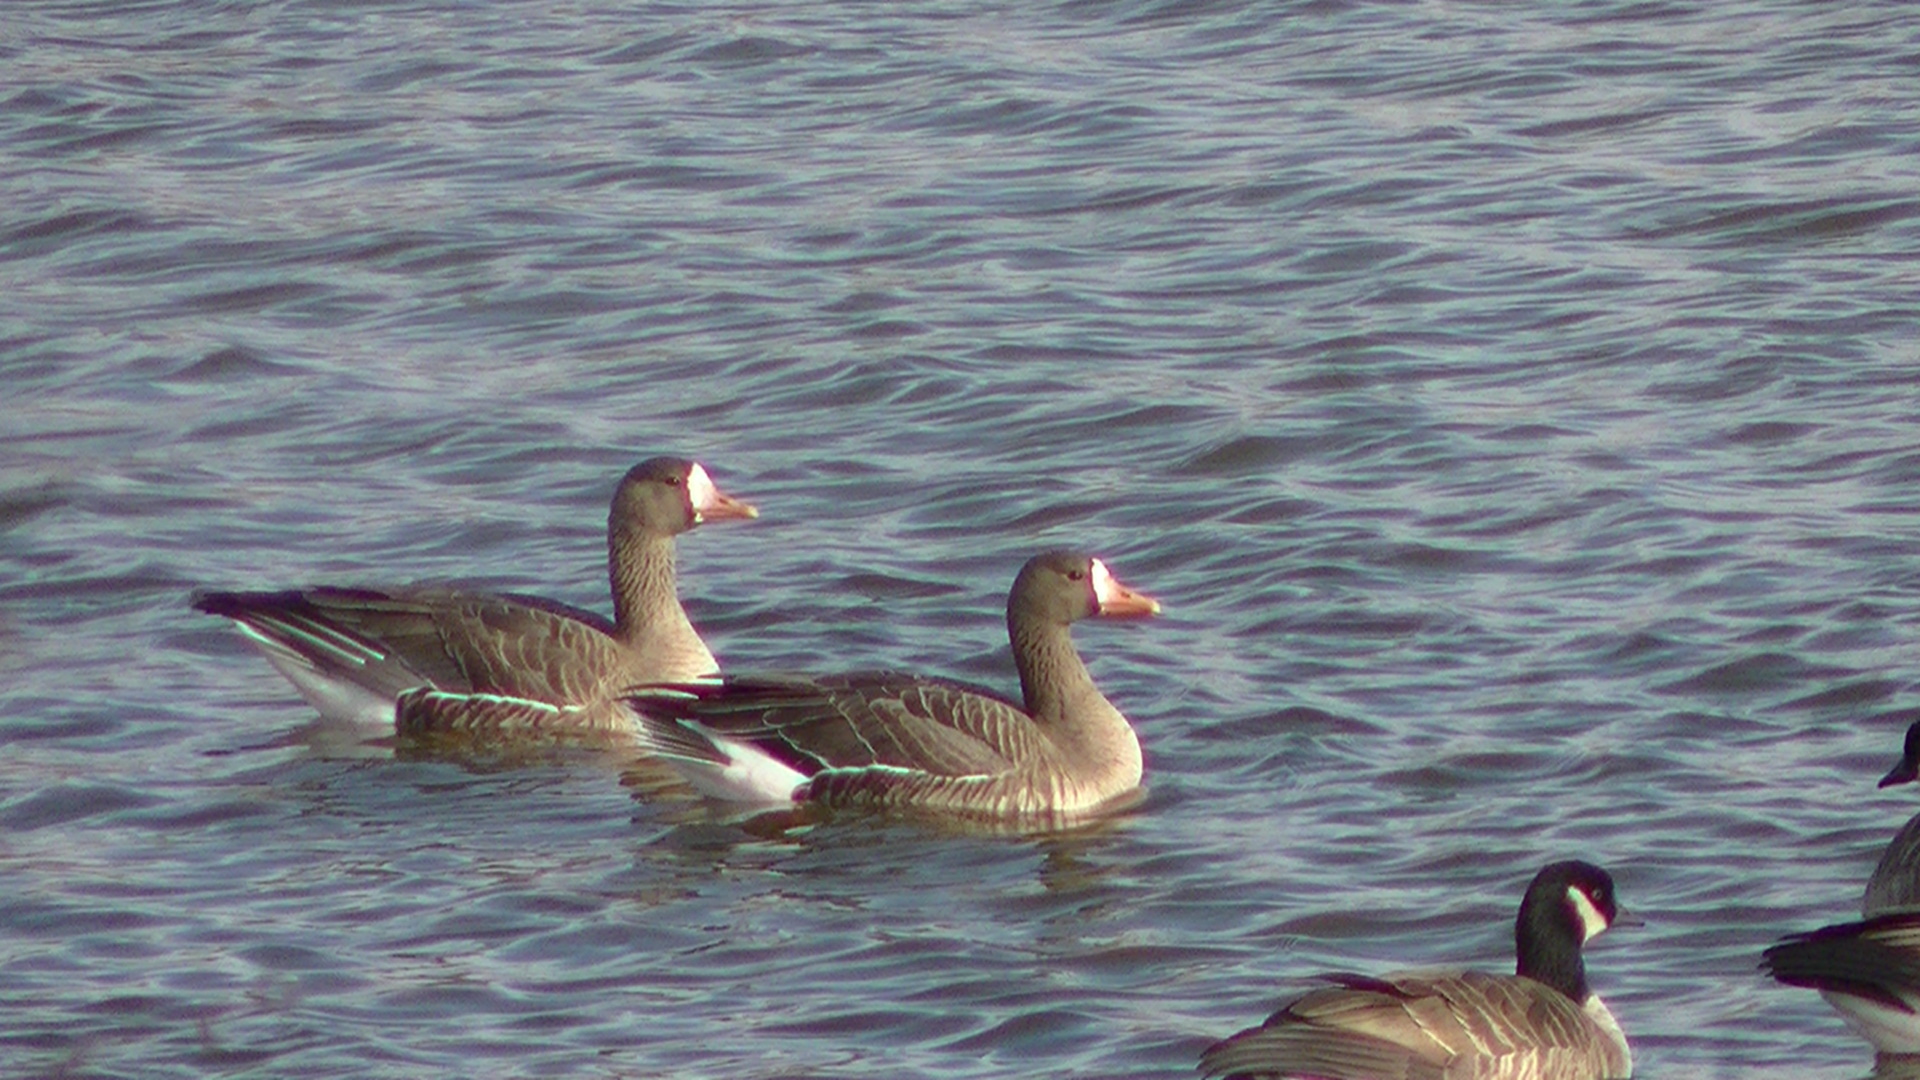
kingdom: Animalia
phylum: Chordata
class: Aves
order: Anseriformes
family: Anatidae
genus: Anser
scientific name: Anser albifrons
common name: Greater white-fronted goose
